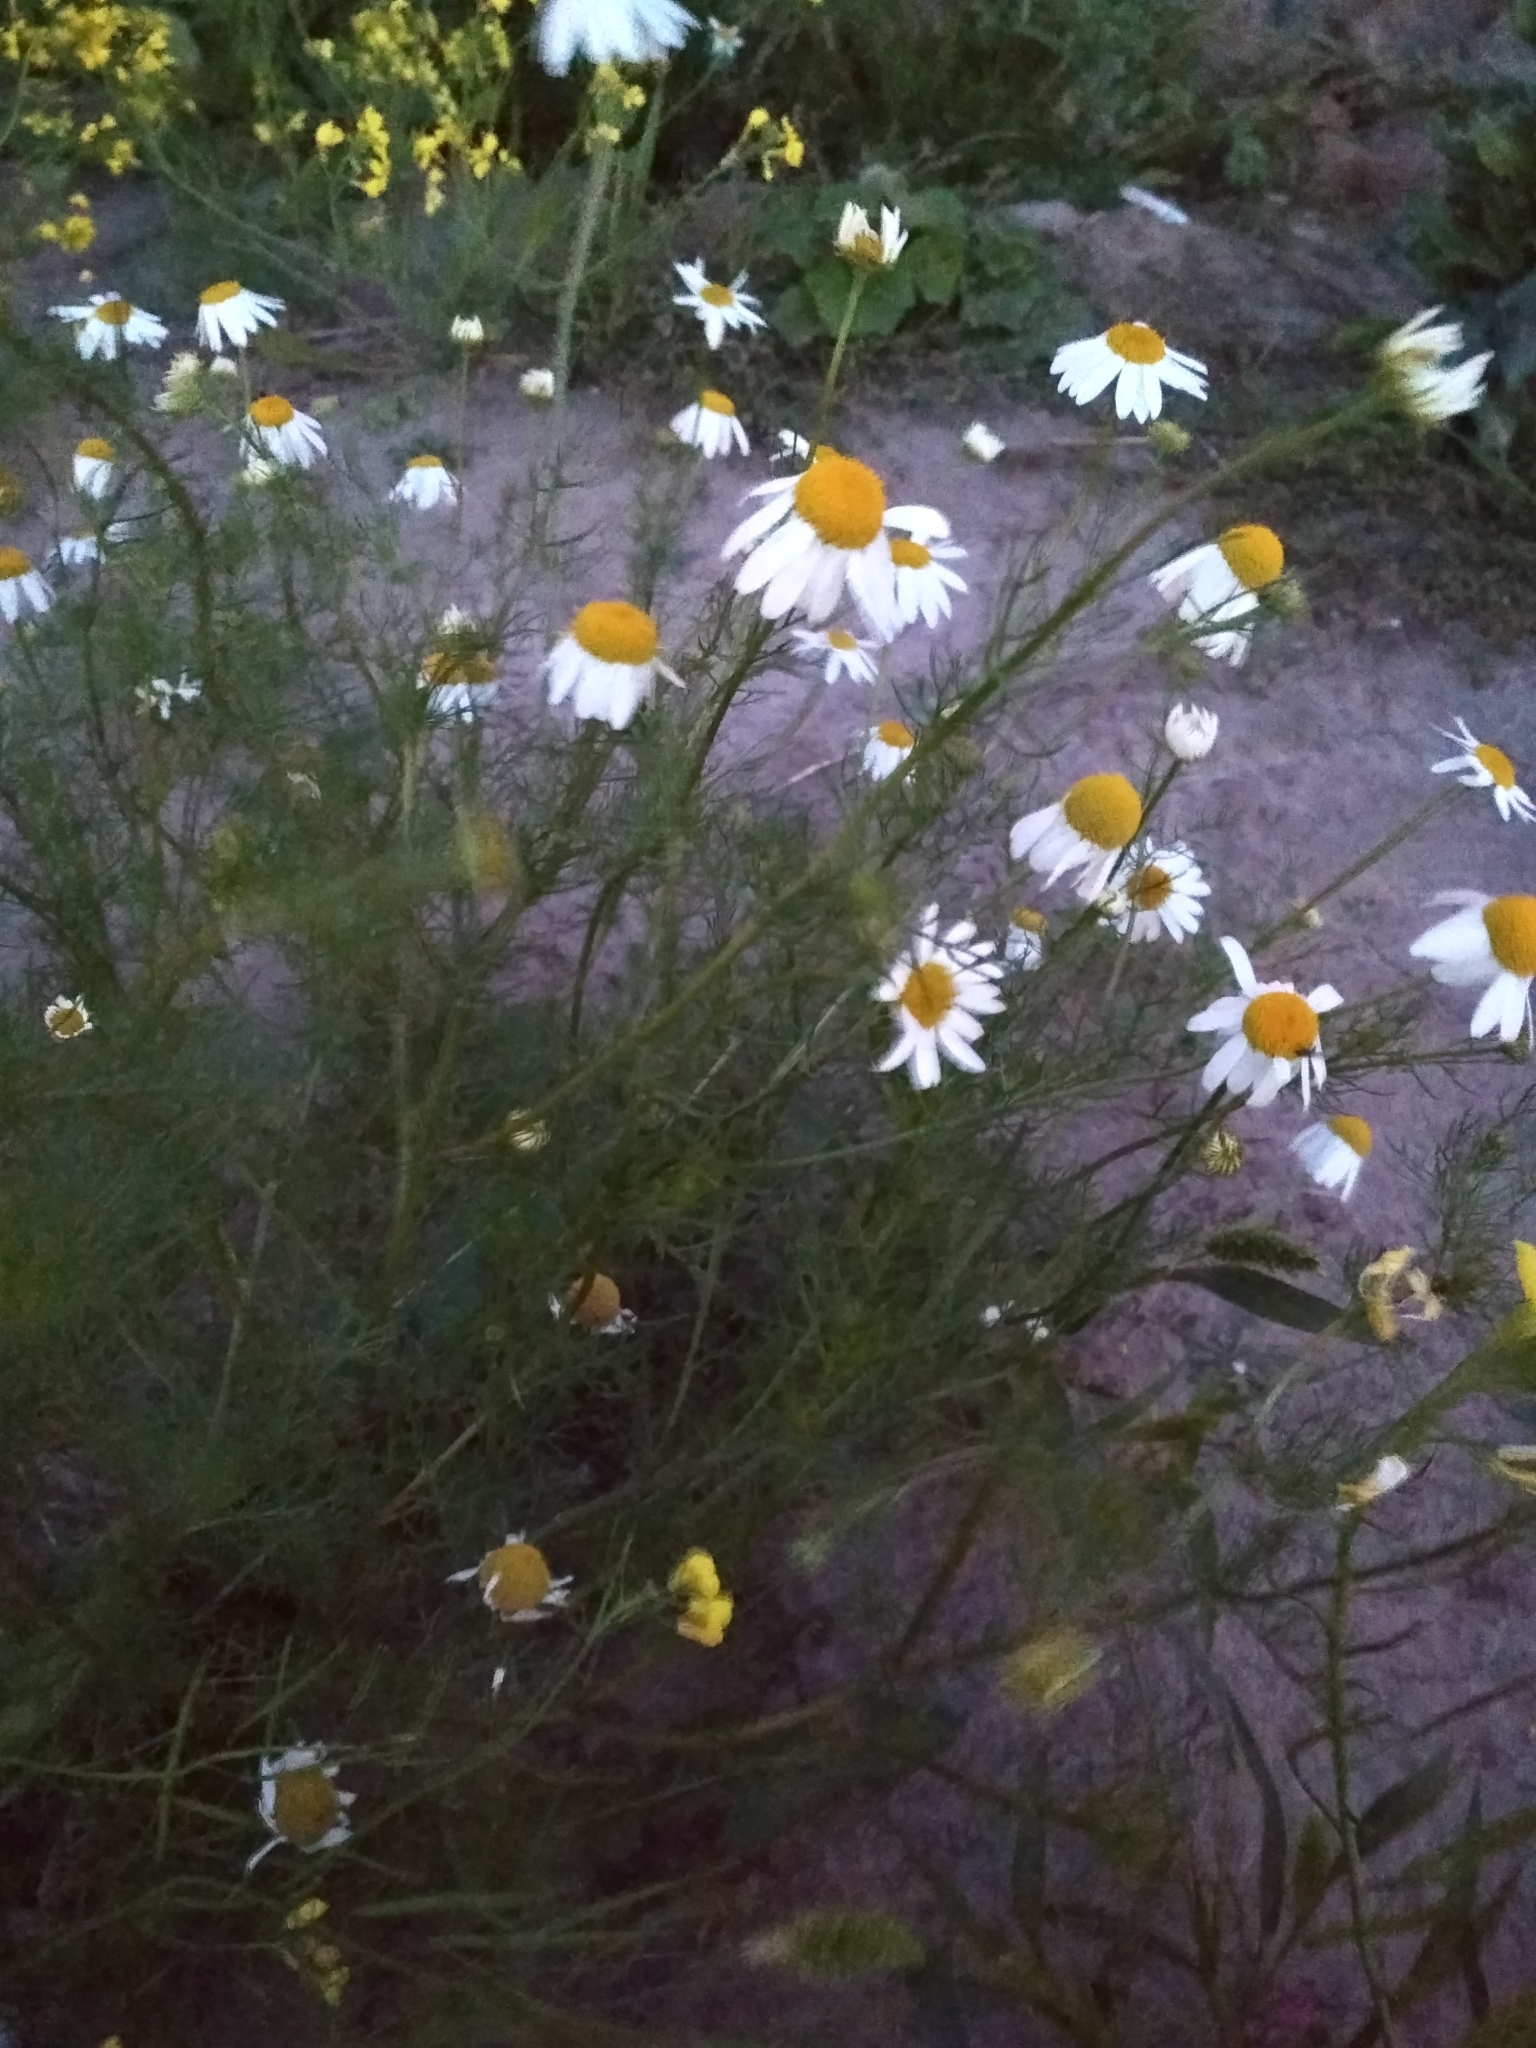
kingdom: Plantae
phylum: Tracheophyta
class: Magnoliopsida
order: Asterales
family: Asteraceae
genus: Tripleurospermum
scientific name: Tripleurospermum inodorum
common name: Scentless mayweed
